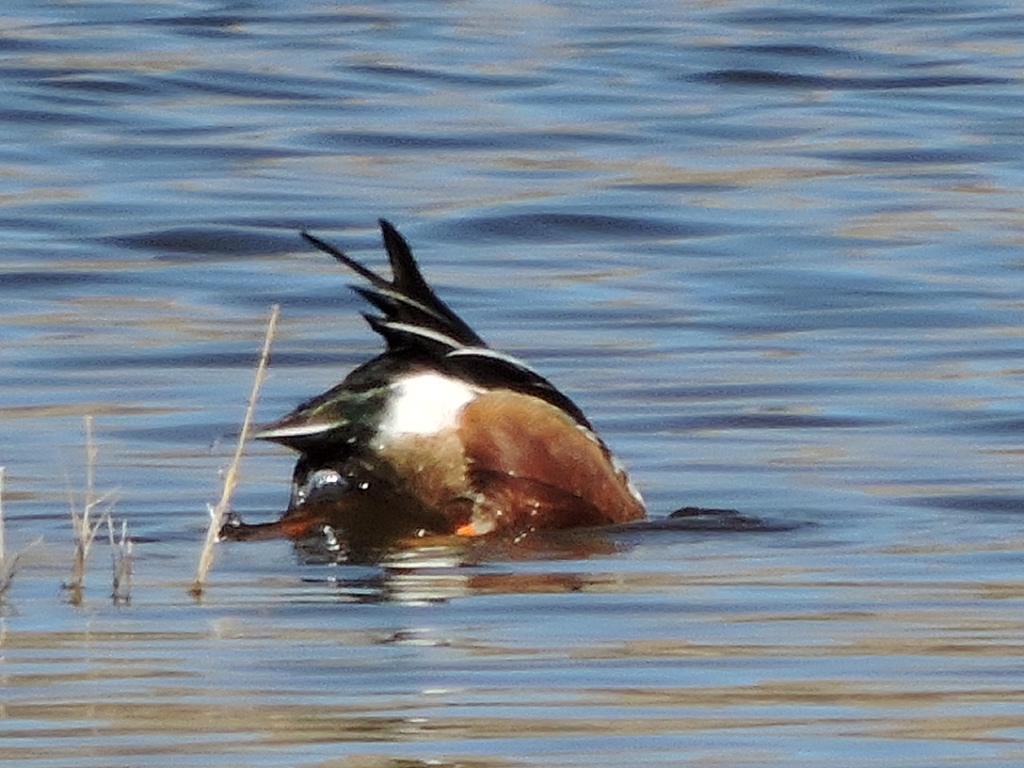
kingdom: Animalia
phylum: Chordata
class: Aves
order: Anseriformes
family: Anatidae
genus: Spatula
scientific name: Spatula clypeata
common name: Northern shoveler
